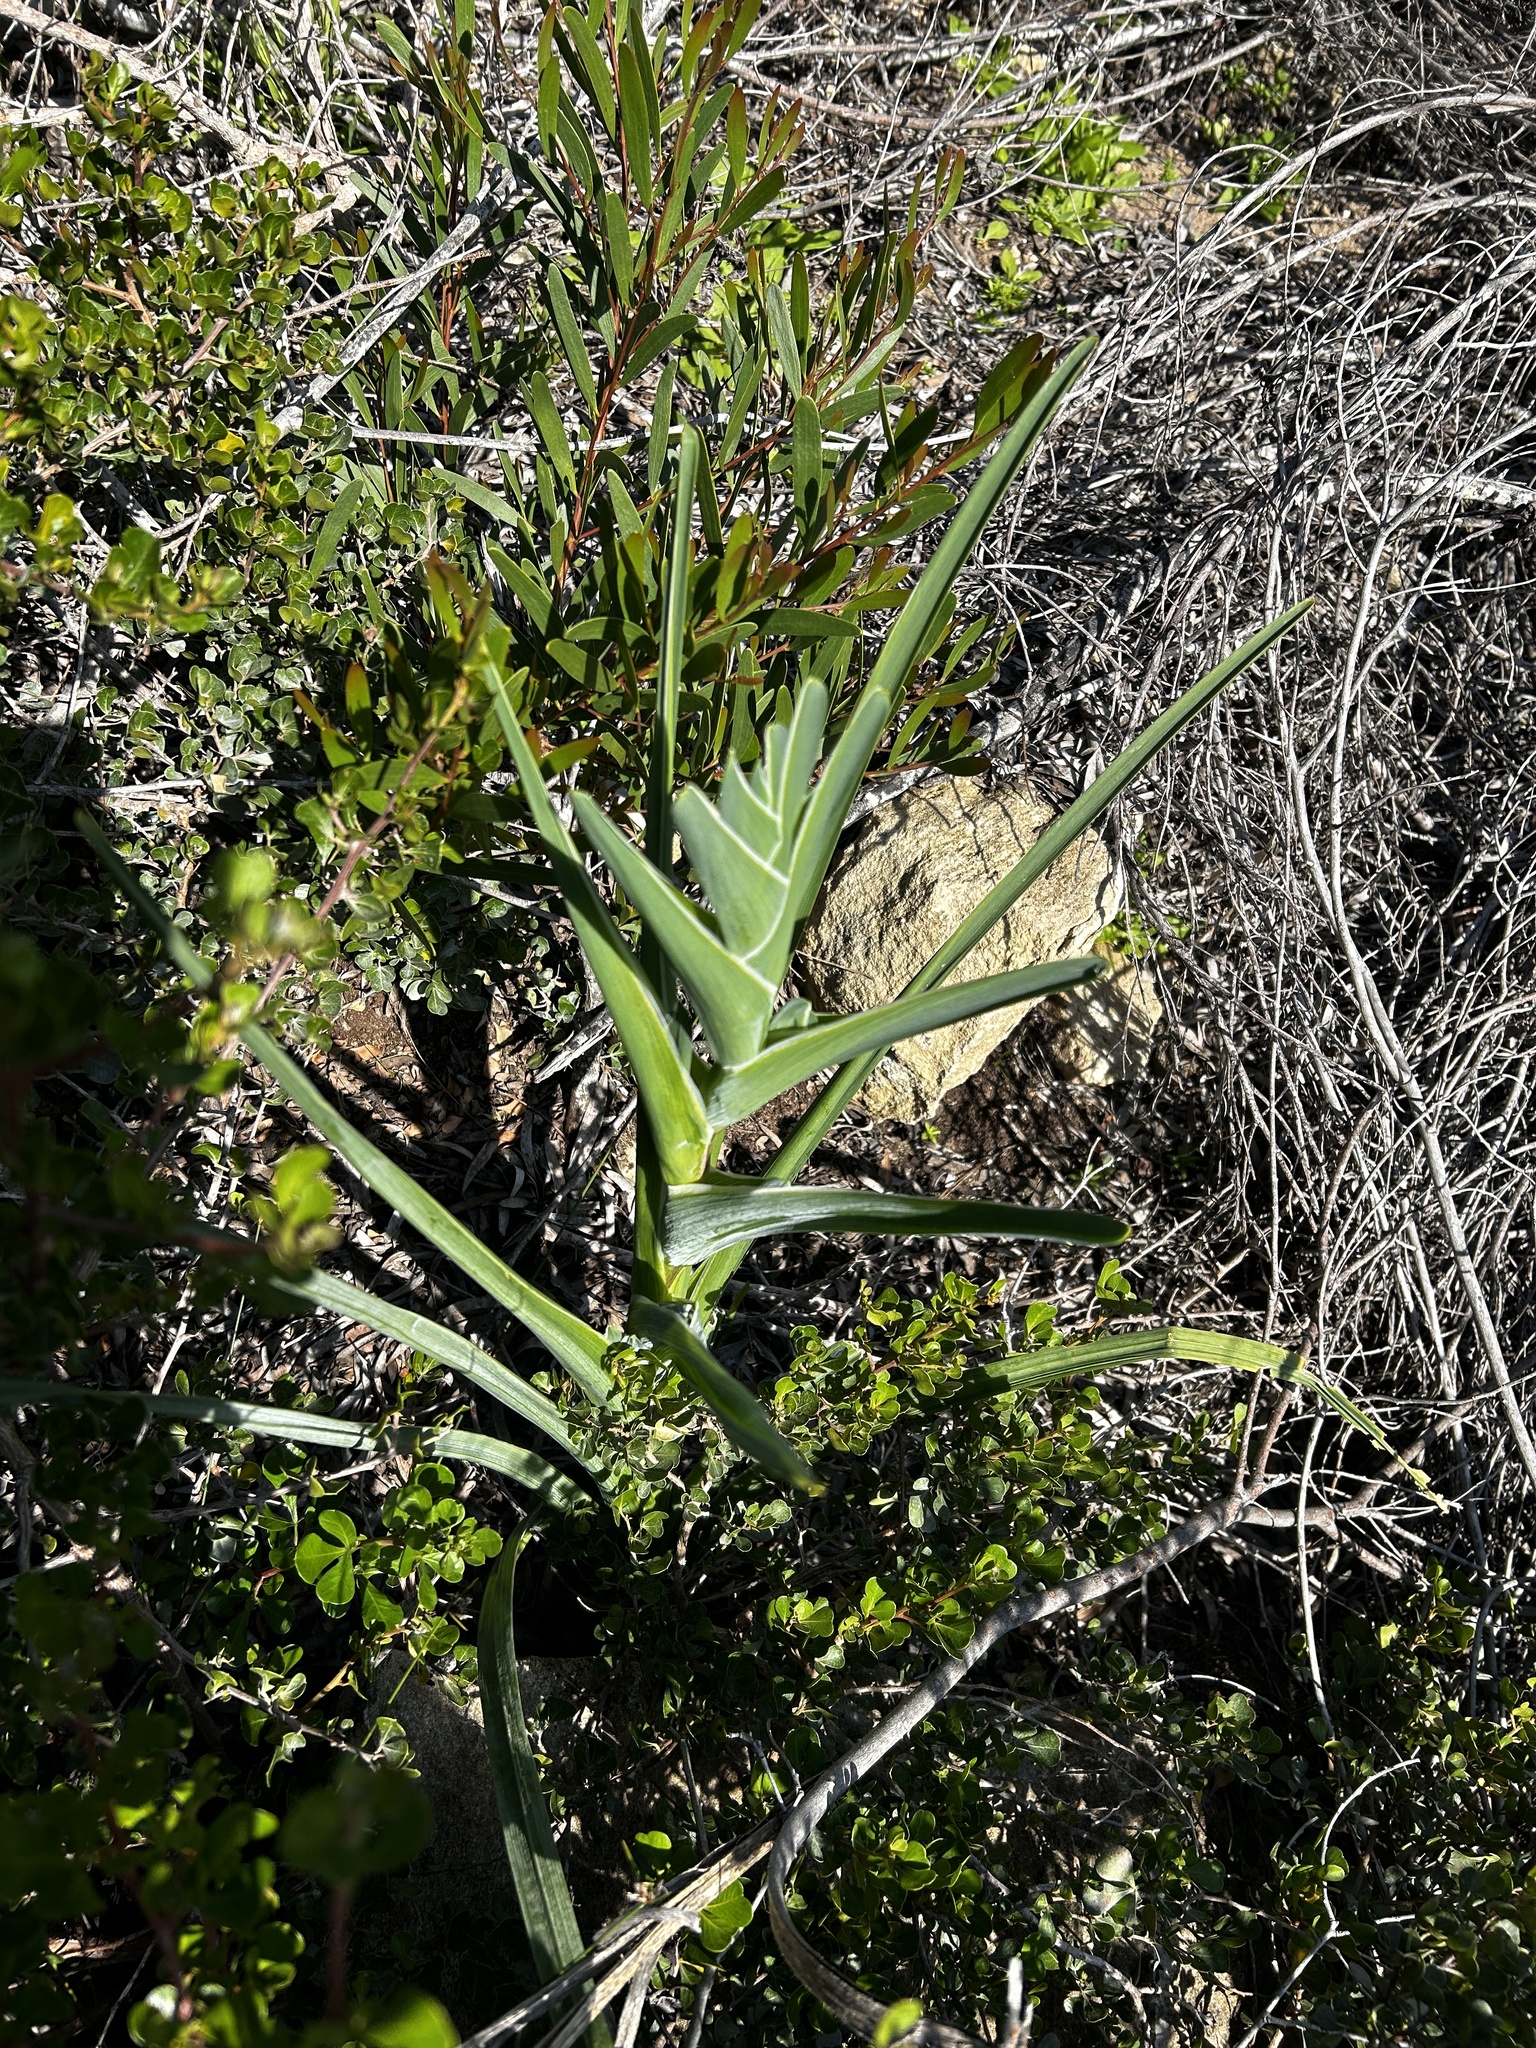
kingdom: Plantae
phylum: Tracheophyta
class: Liliopsida
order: Asparagales
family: Iridaceae
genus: Ferraria
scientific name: Ferraria crispa
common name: Black-flag
